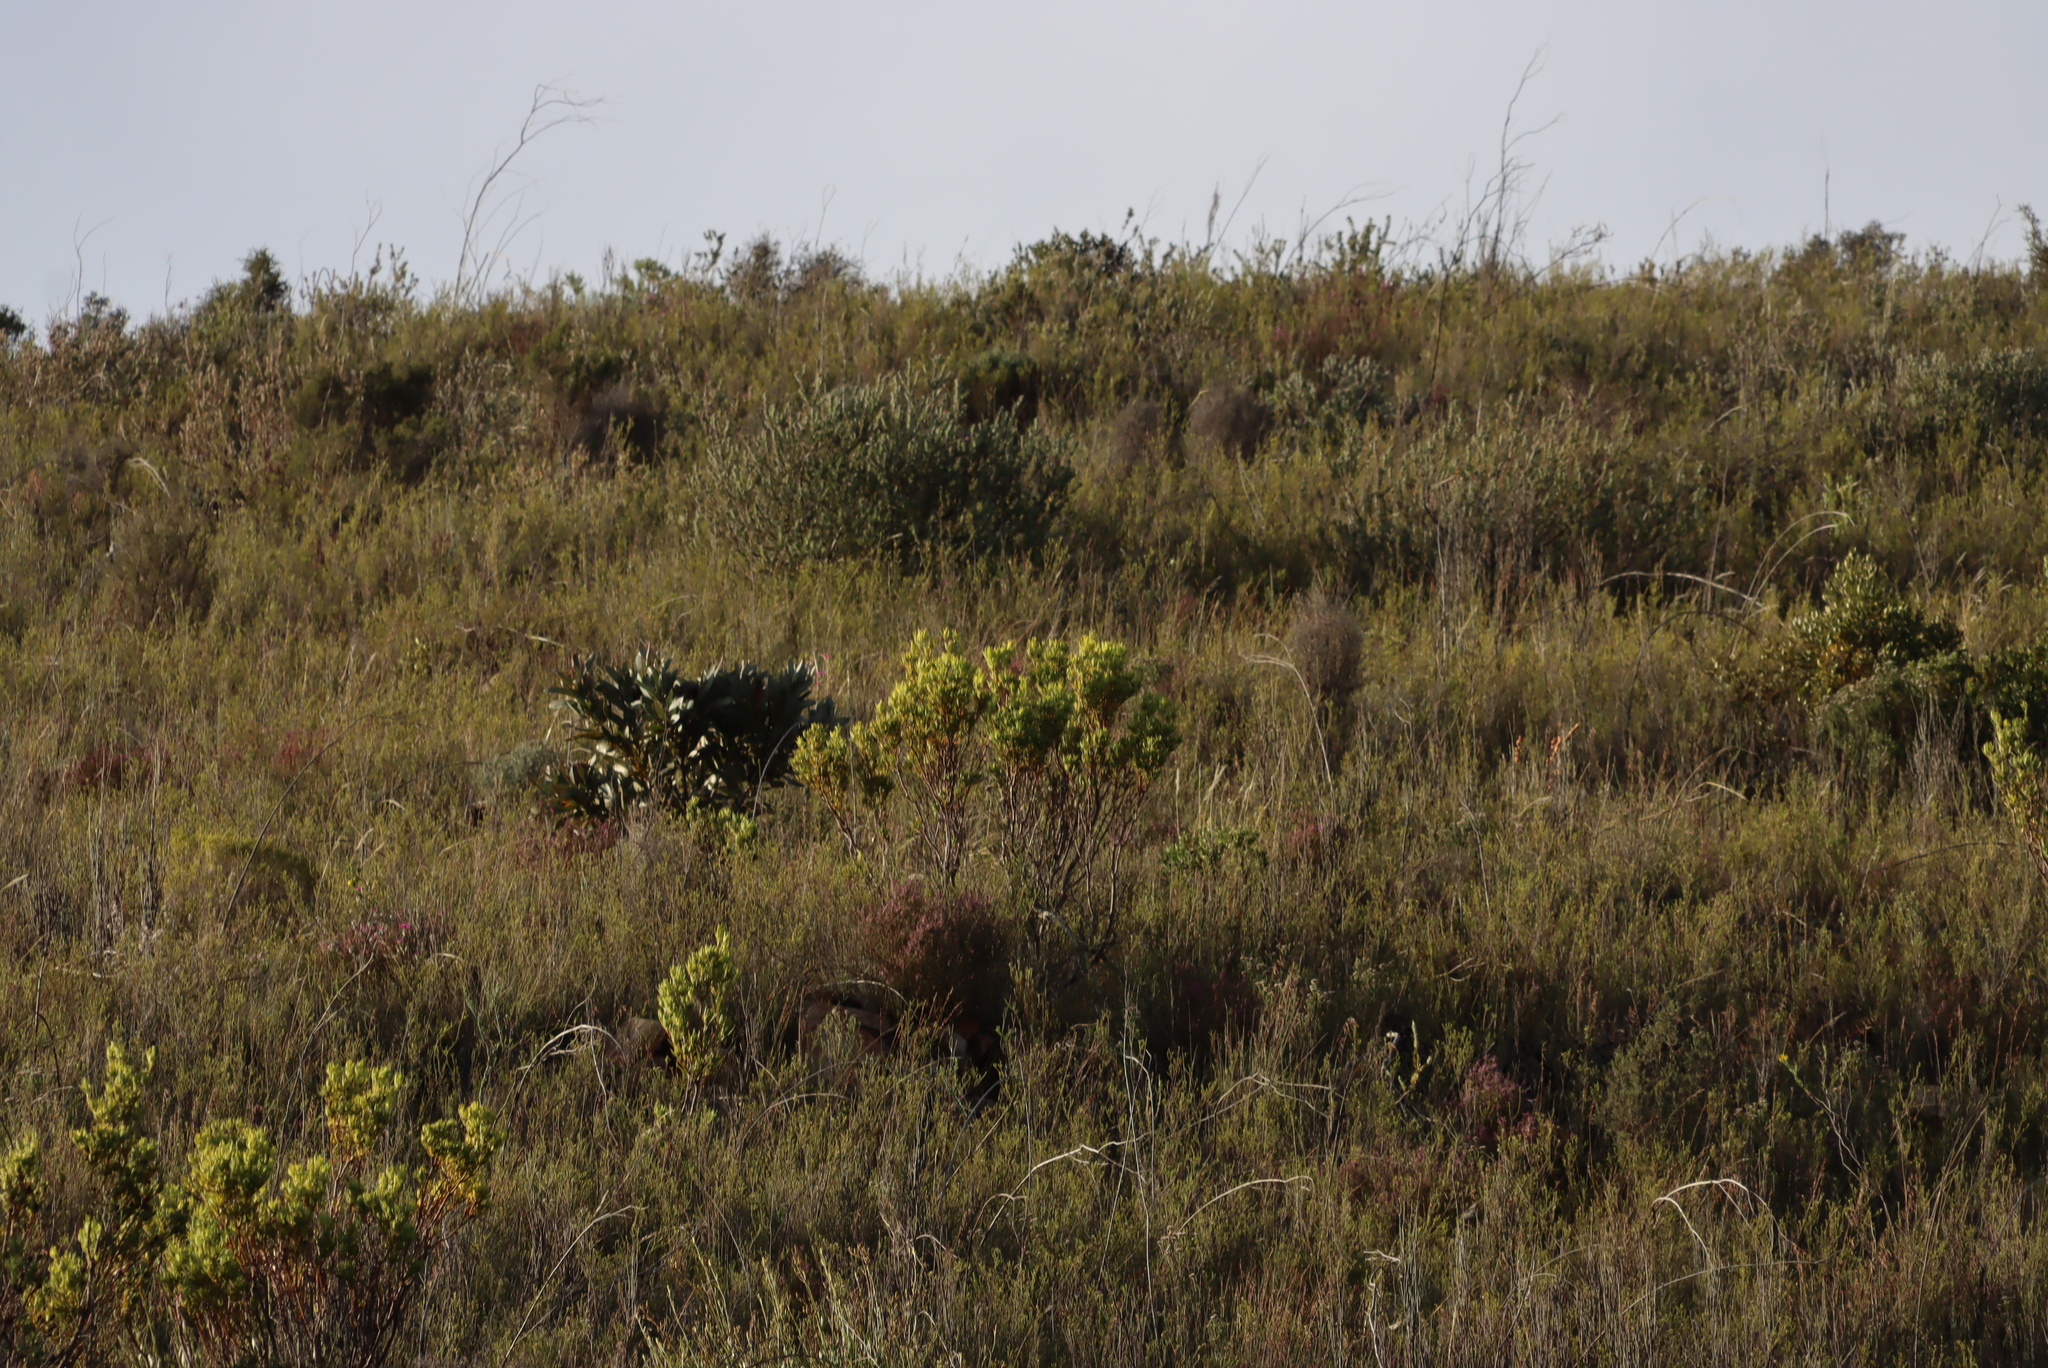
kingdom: Plantae
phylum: Tracheophyta
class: Magnoliopsida
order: Proteales
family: Proteaceae
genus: Protea
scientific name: Protea lorifolia
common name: Strap-leaved protea
